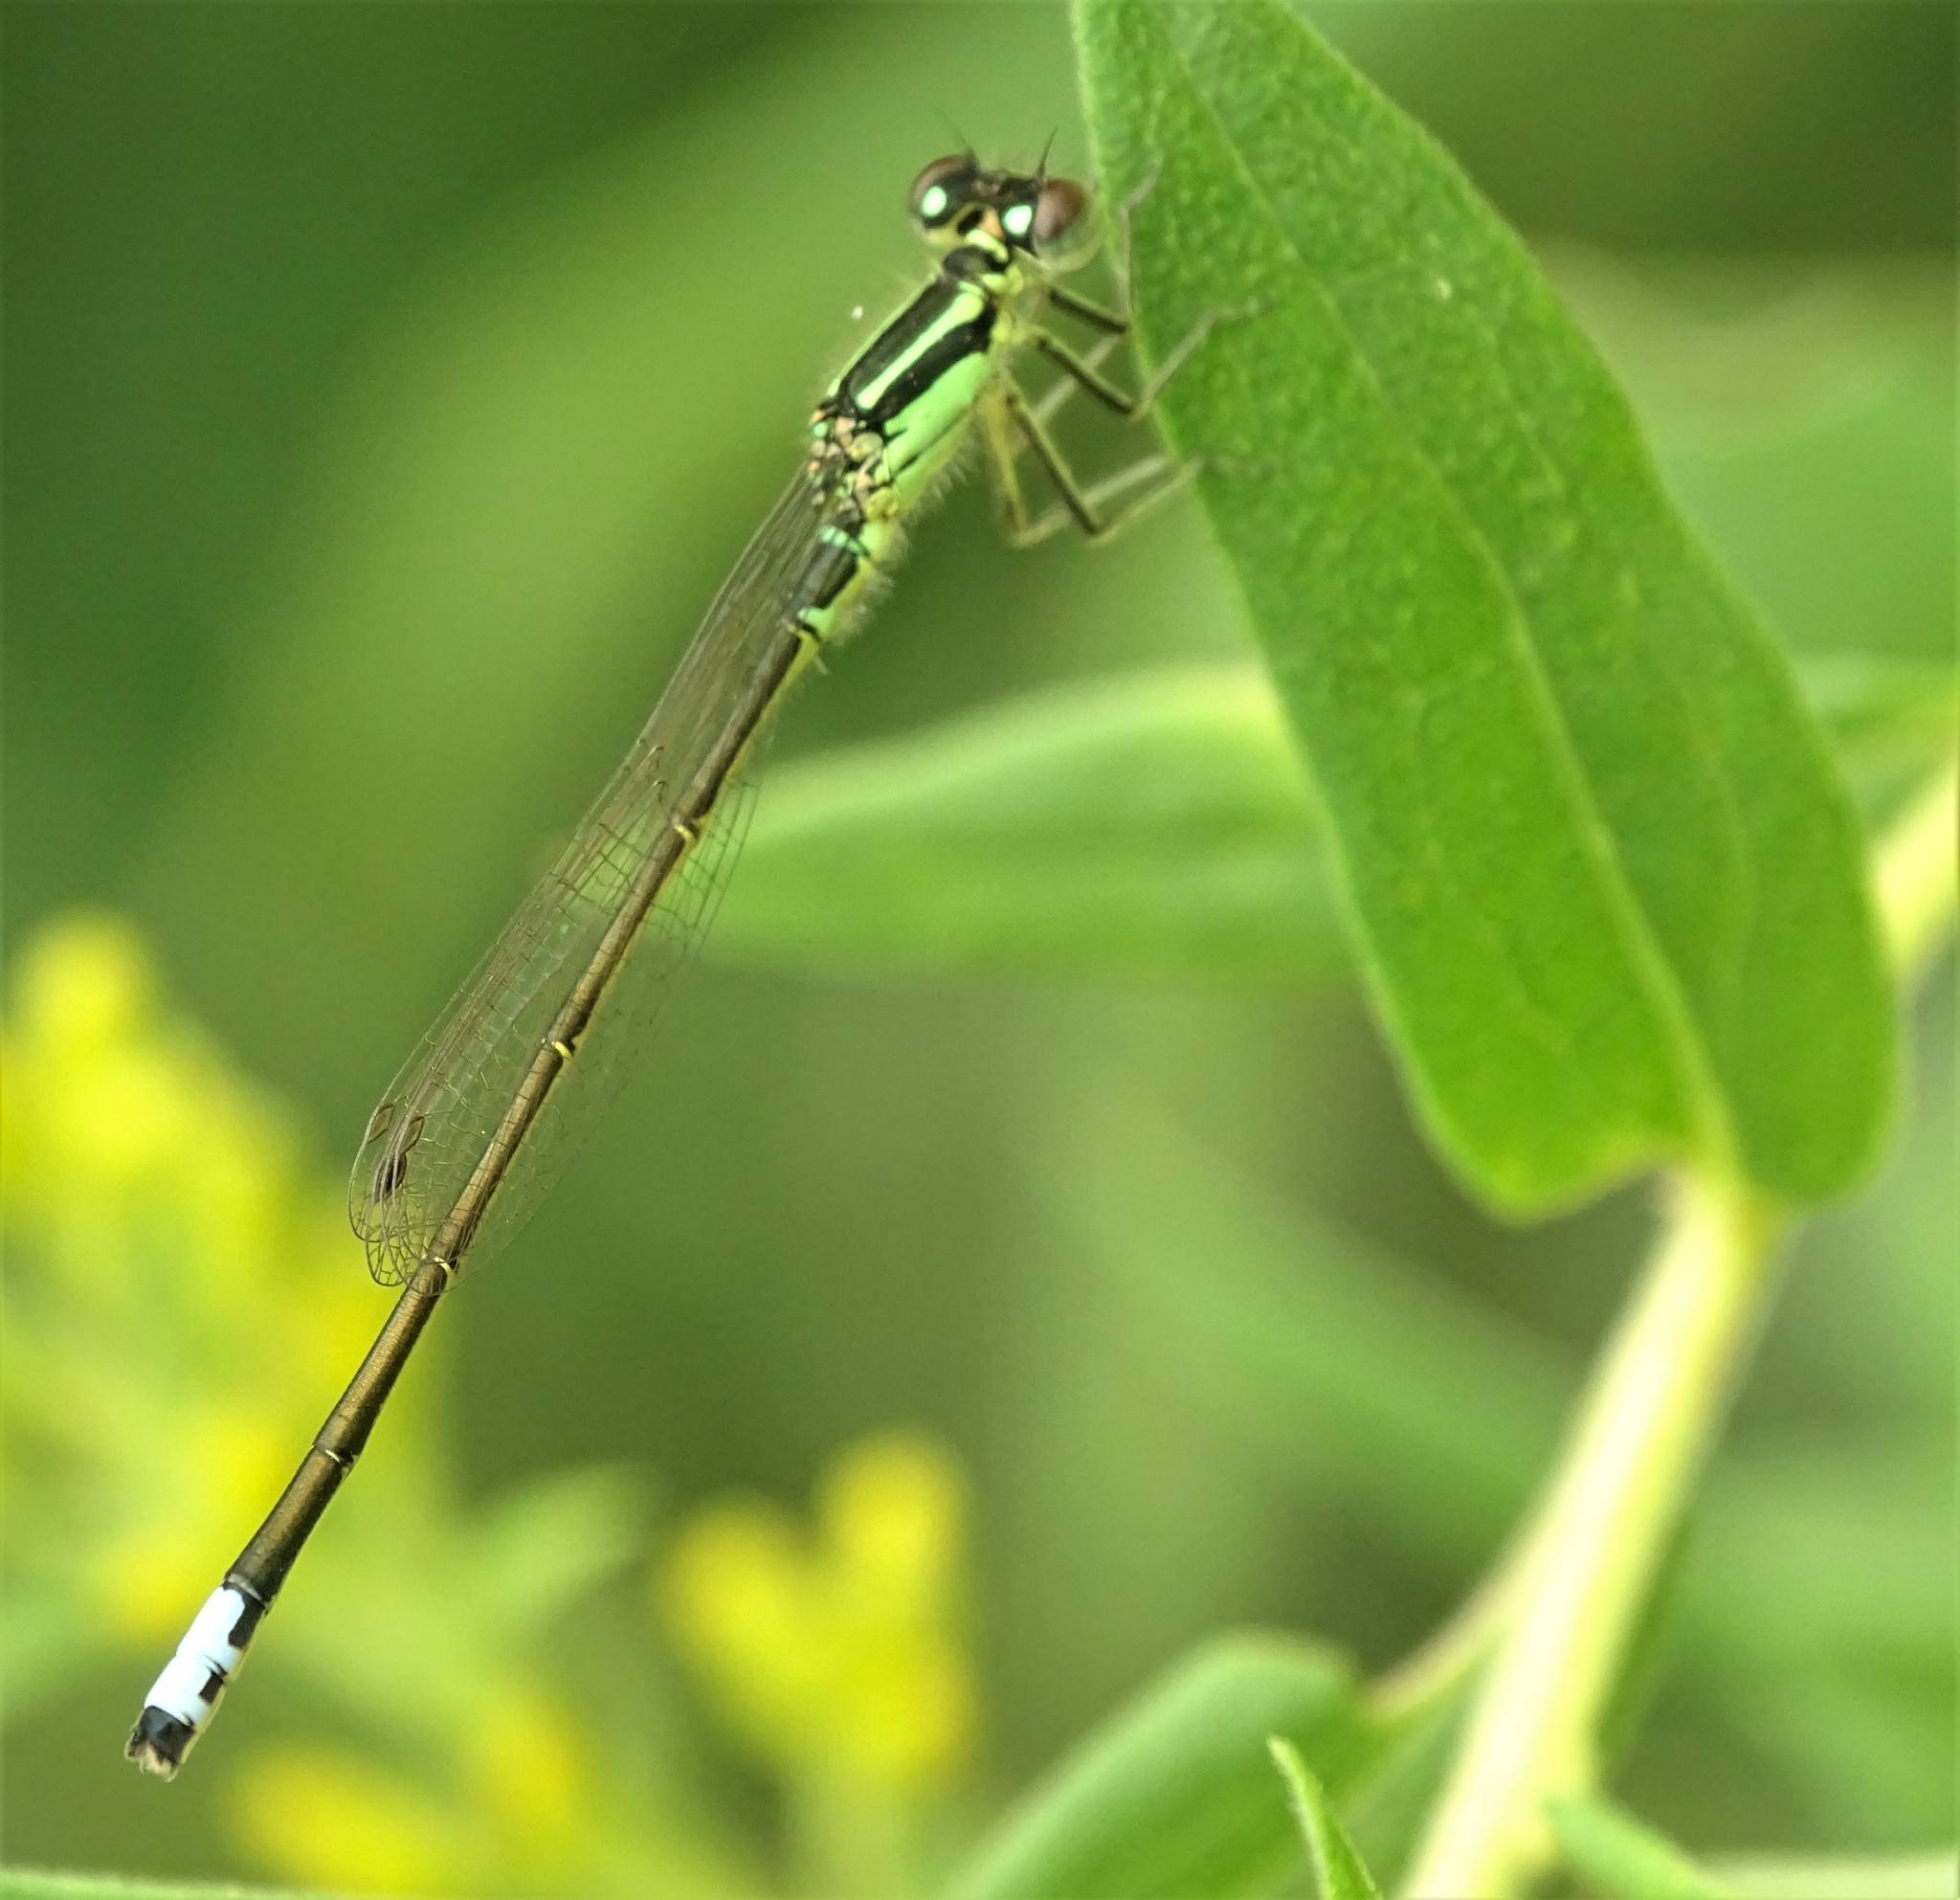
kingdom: Animalia
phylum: Arthropoda
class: Insecta
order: Odonata
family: Coenagrionidae
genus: Ischnura
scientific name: Ischnura verticalis
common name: Eastern forktail
